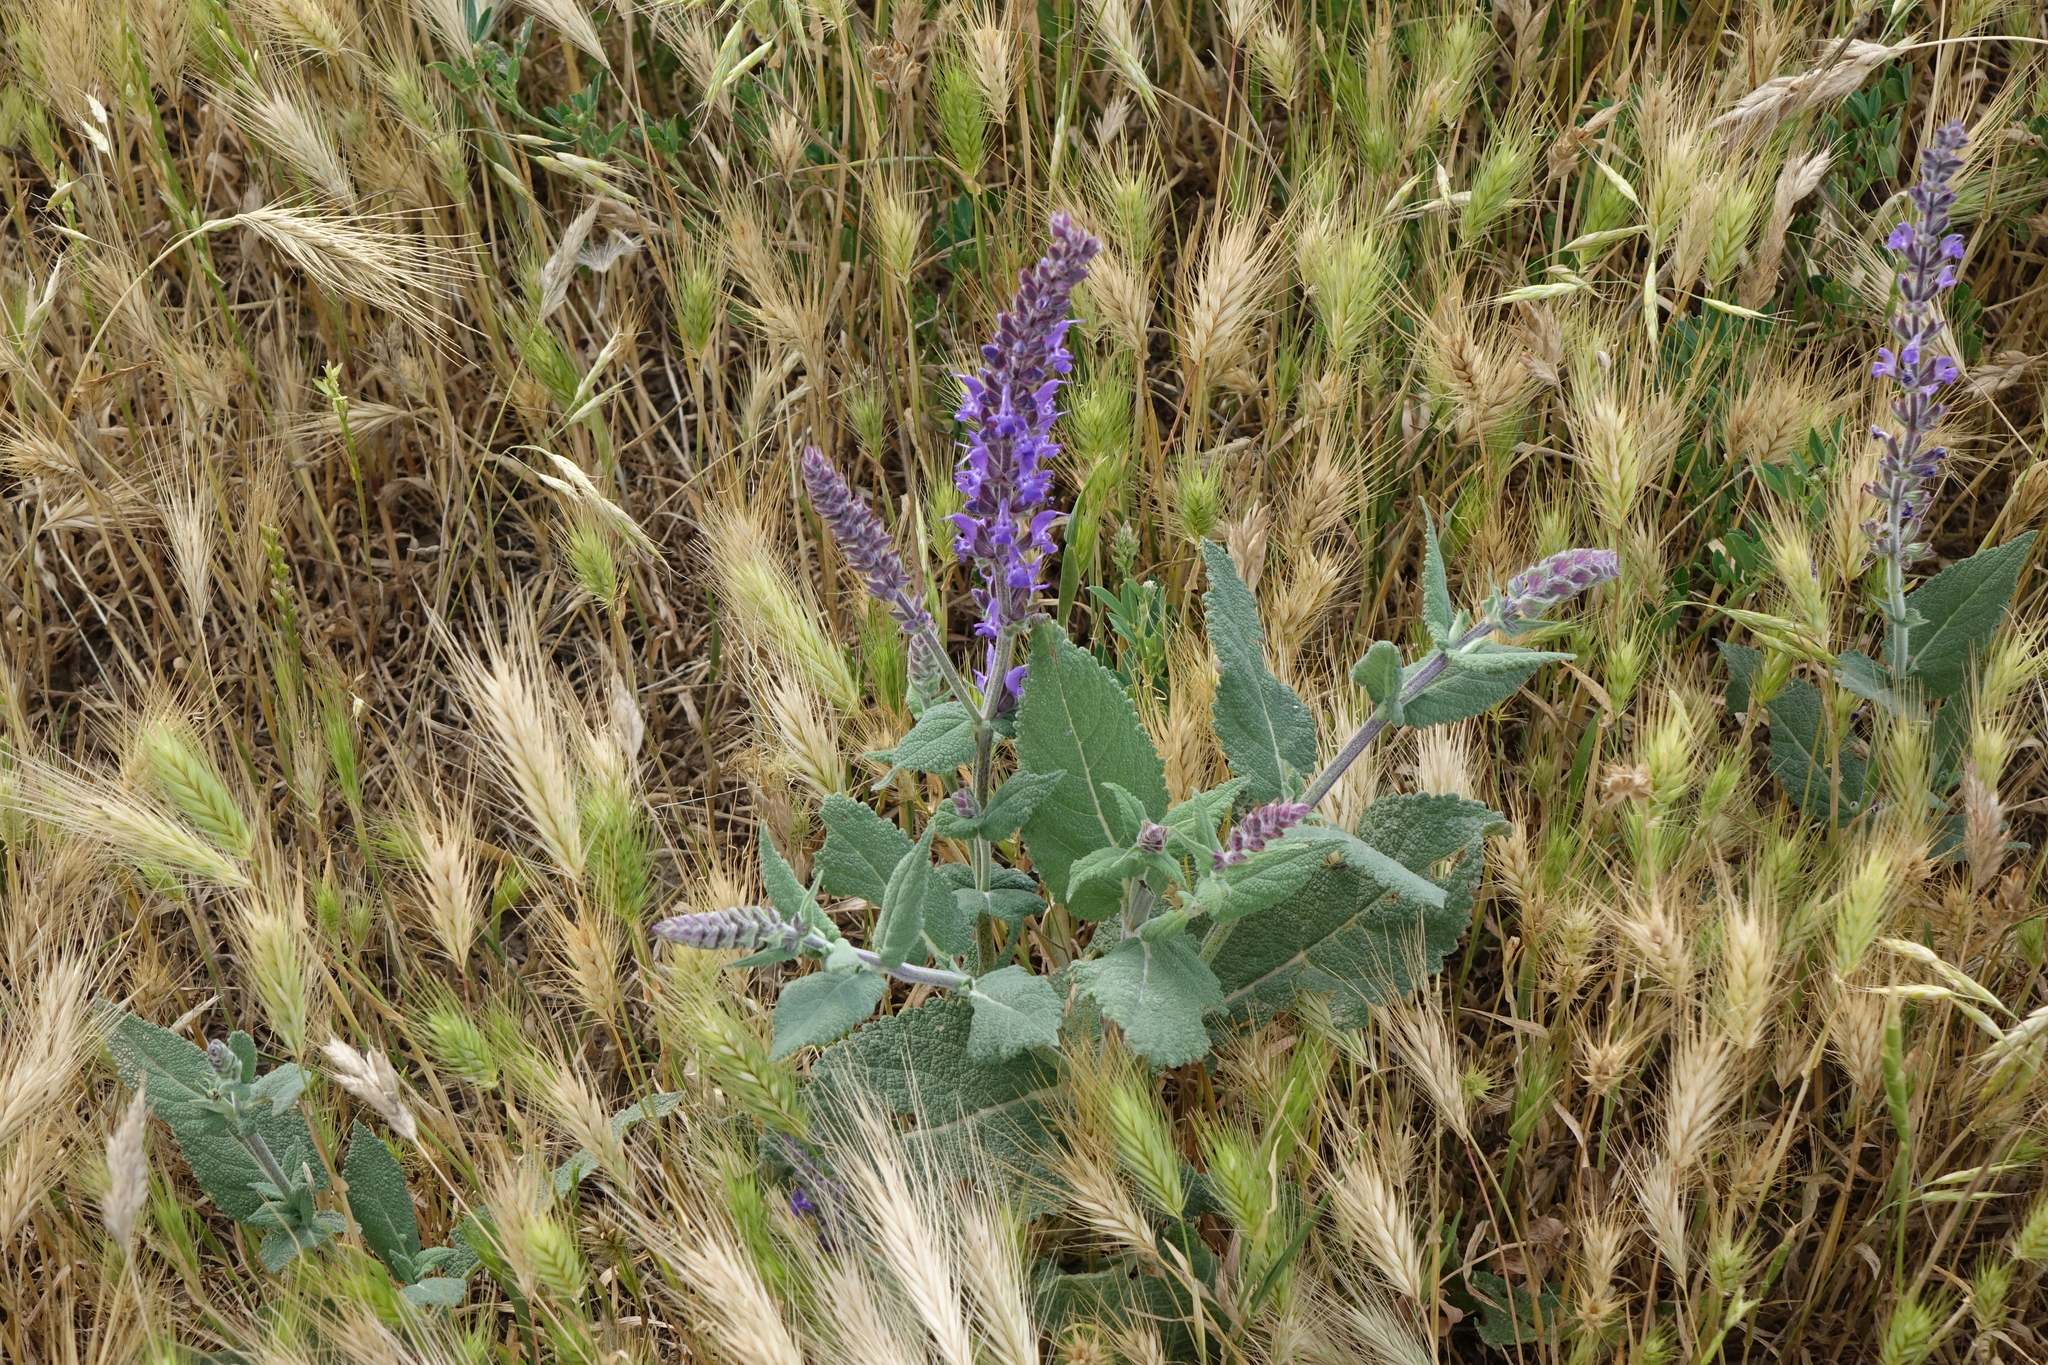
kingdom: Plantae
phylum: Tracheophyta
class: Magnoliopsida
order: Lamiales
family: Lamiaceae
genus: Salvia
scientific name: Salvia nemorosa
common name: Balkan clary
